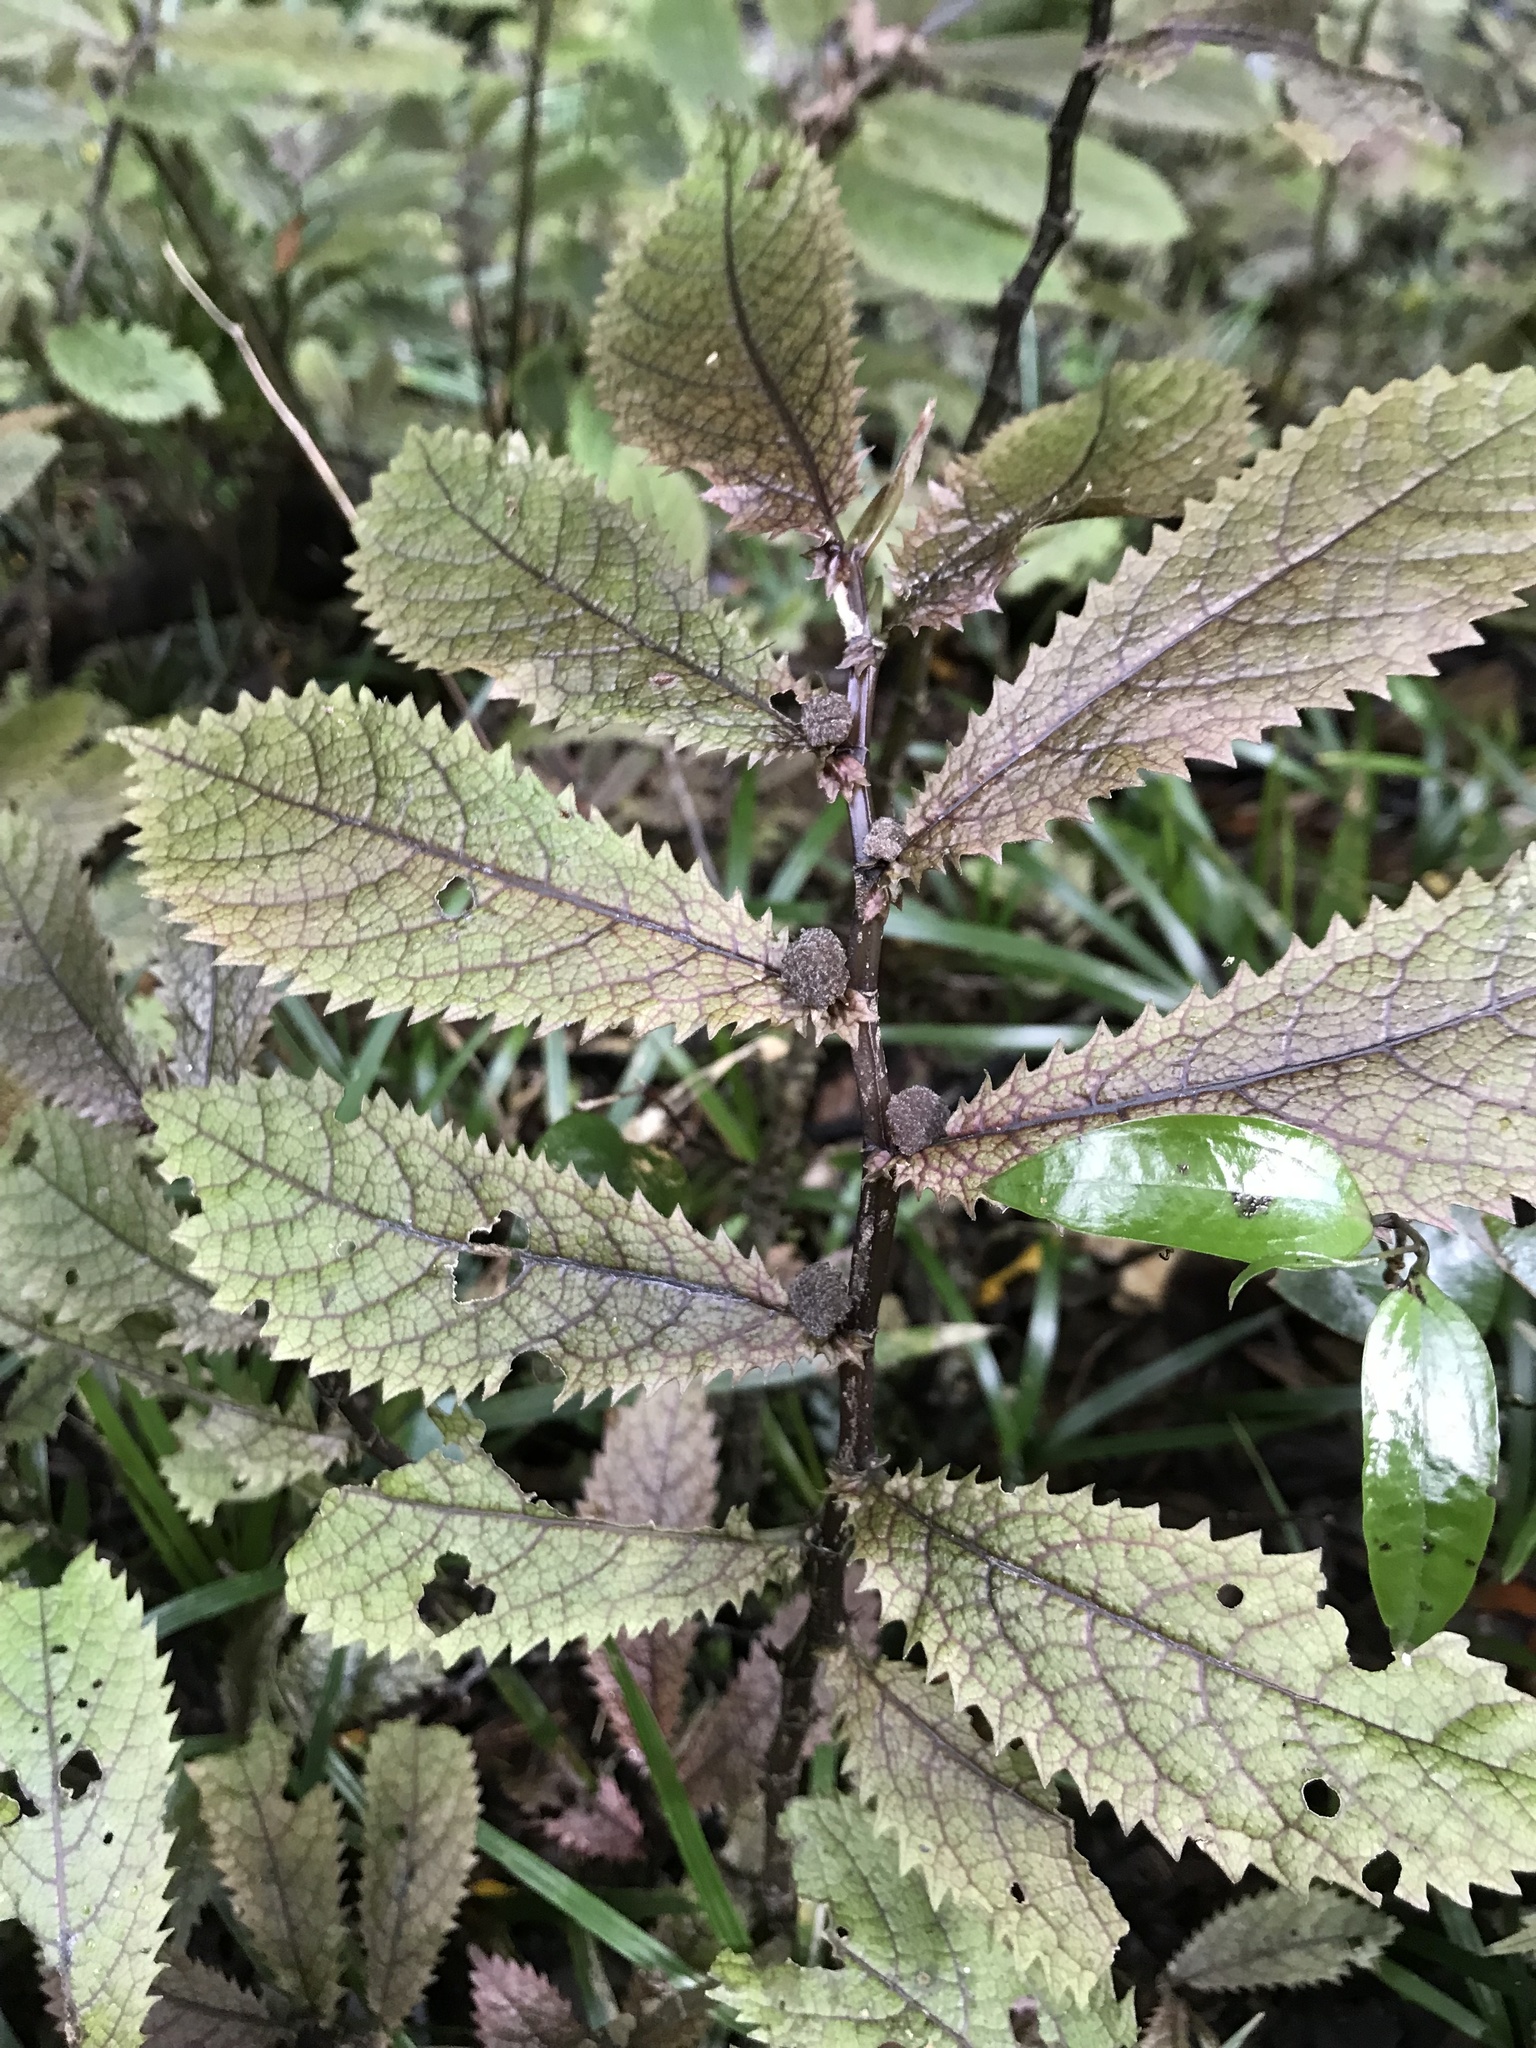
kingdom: Plantae
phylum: Tracheophyta
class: Magnoliopsida
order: Rosales
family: Urticaceae
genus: Elatostema
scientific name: Elatostema rugosum
